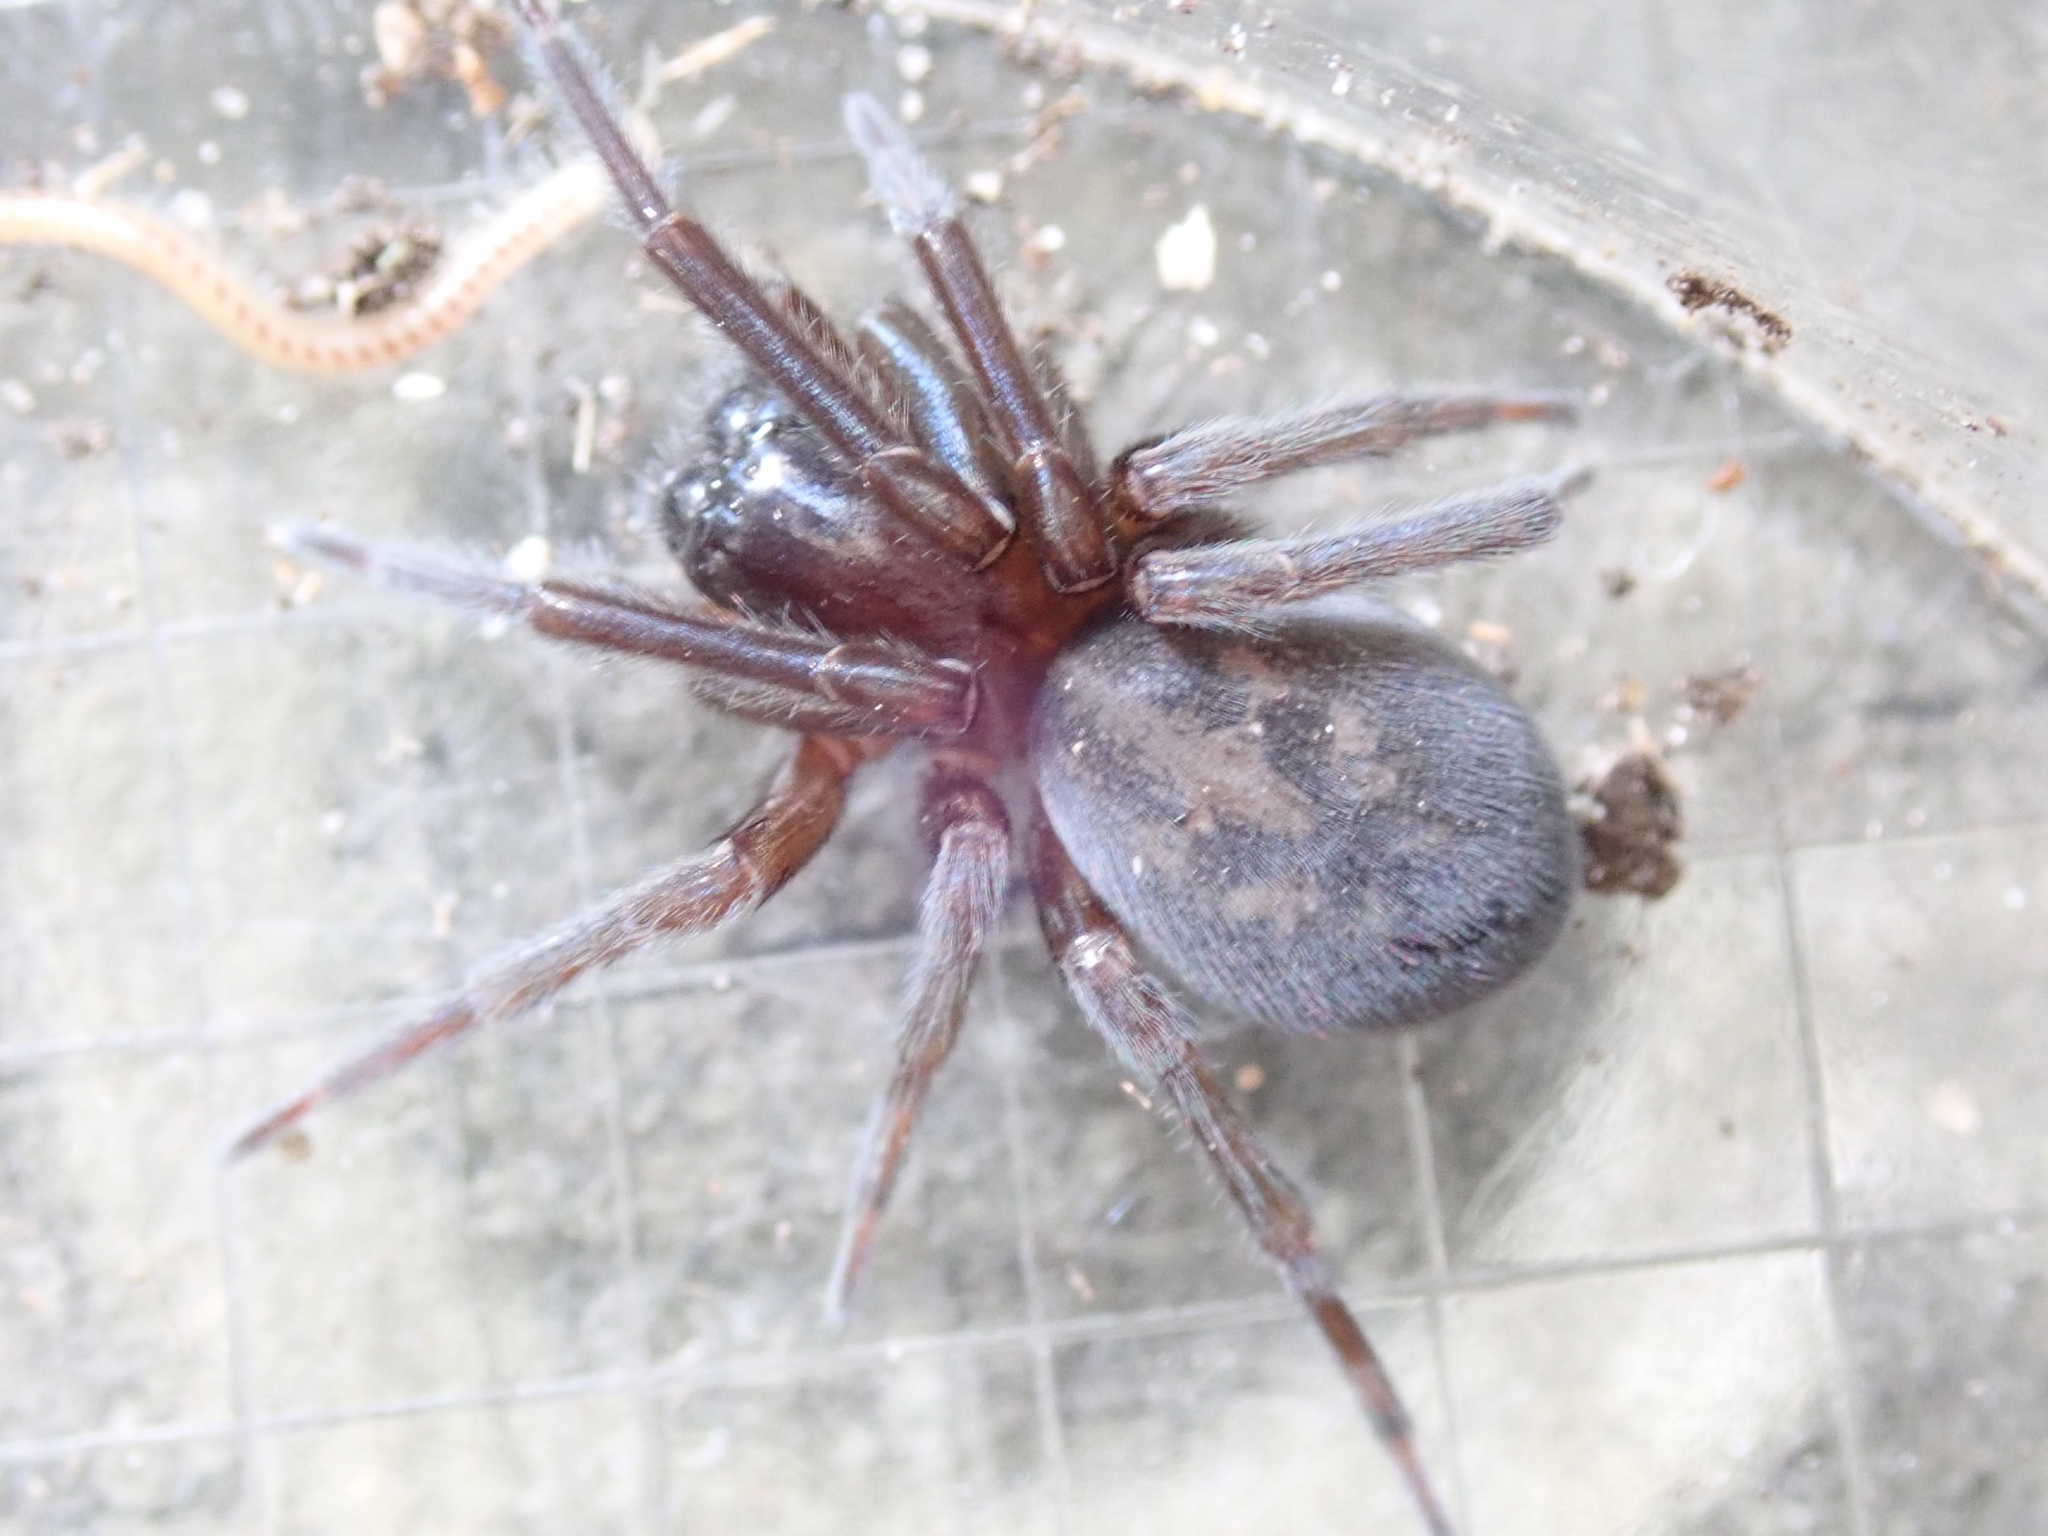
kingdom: Animalia
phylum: Arthropoda
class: Arachnida
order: Araneae
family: Amaurobiidae
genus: Amaurobius
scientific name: Amaurobius ferox
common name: Black laceweaver
